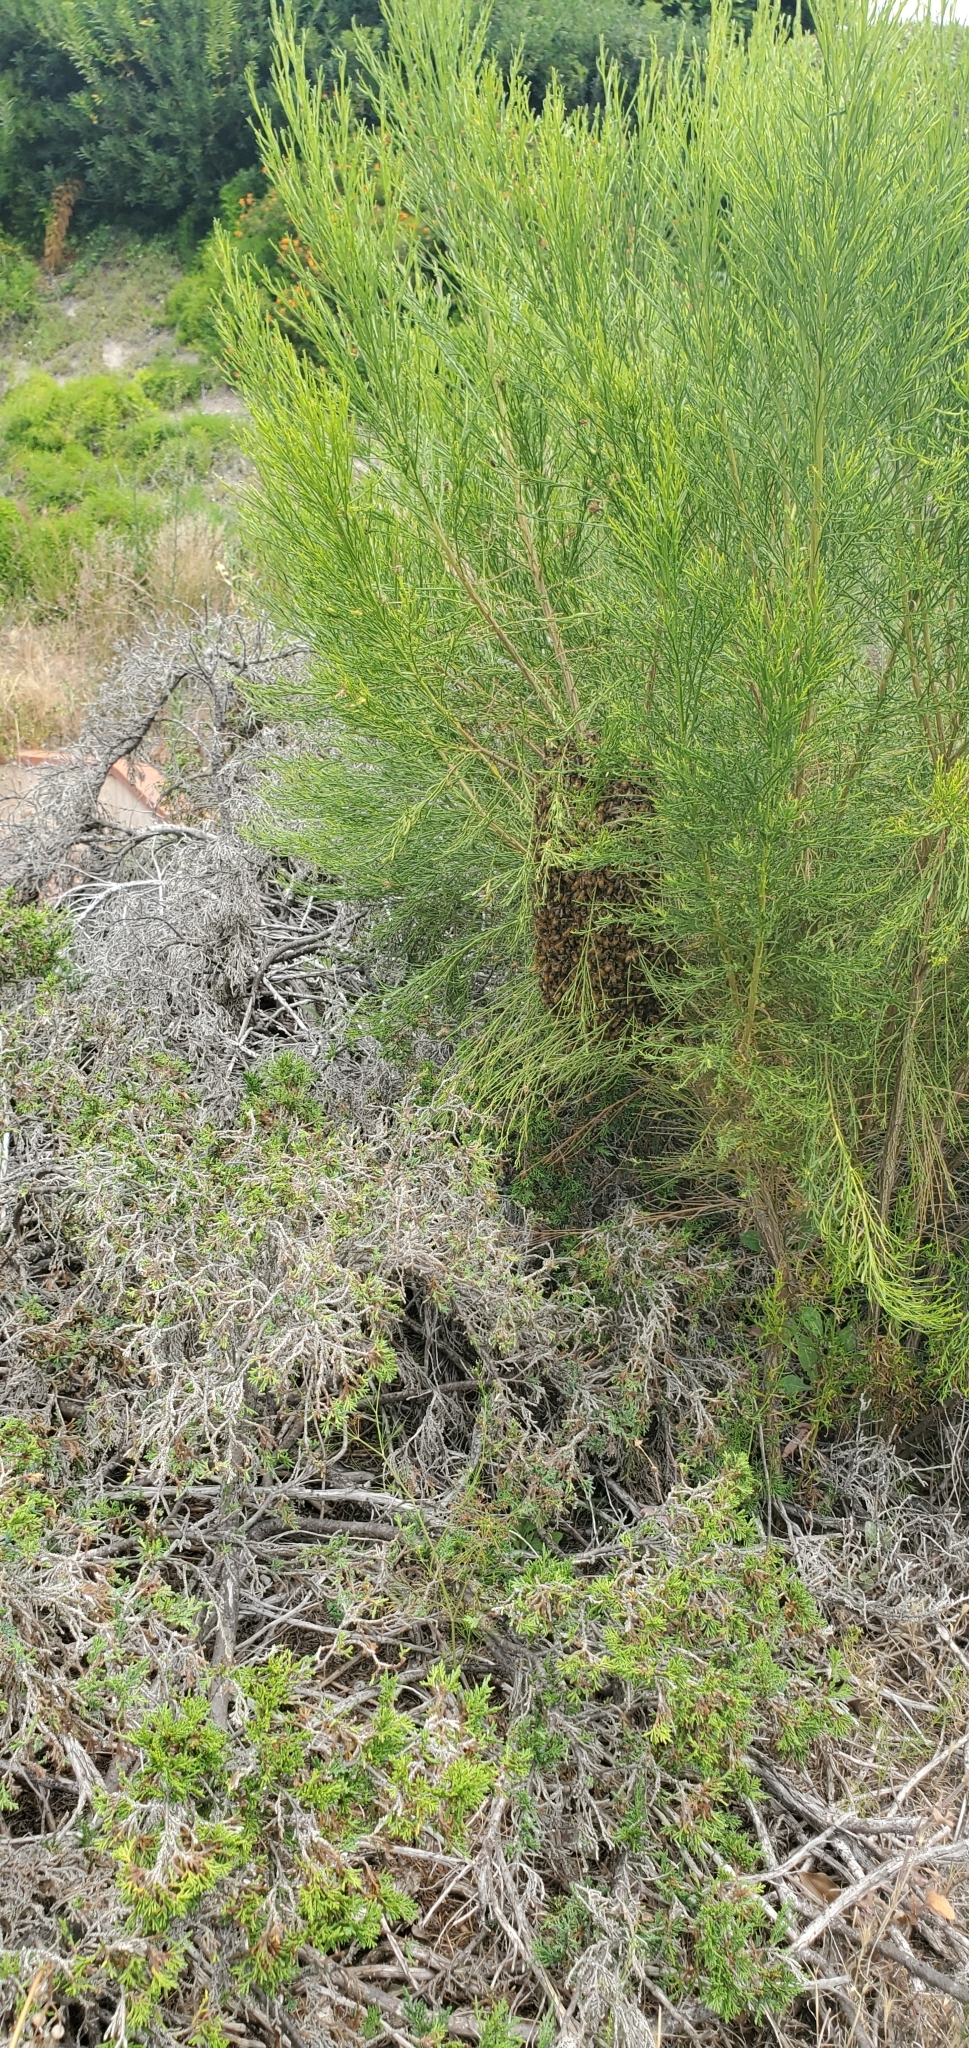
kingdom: Animalia
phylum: Arthropoda
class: Insecta
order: Hymenoptera
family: Apidae
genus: Apis
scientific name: Apis mellifera
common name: Honey bee
